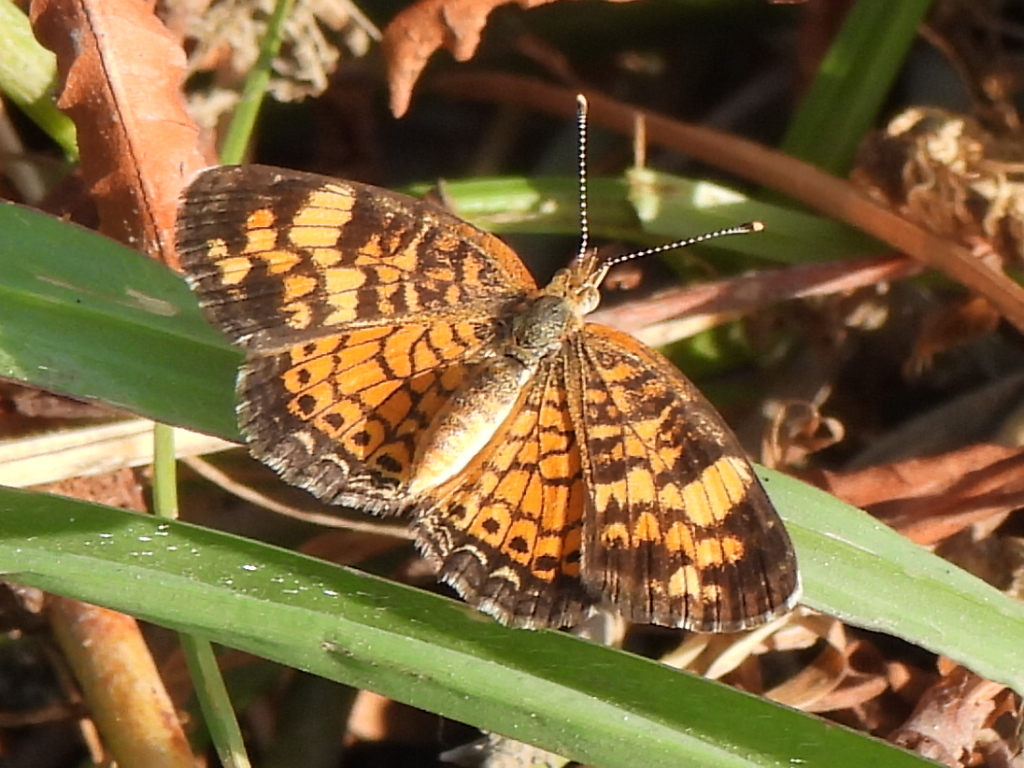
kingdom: Animalia
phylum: Arthropoda
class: Insecta
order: Lepidoptera
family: Nymphalidae
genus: Phyciodes
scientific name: Phyciodes tharos
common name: Pearl crescent
